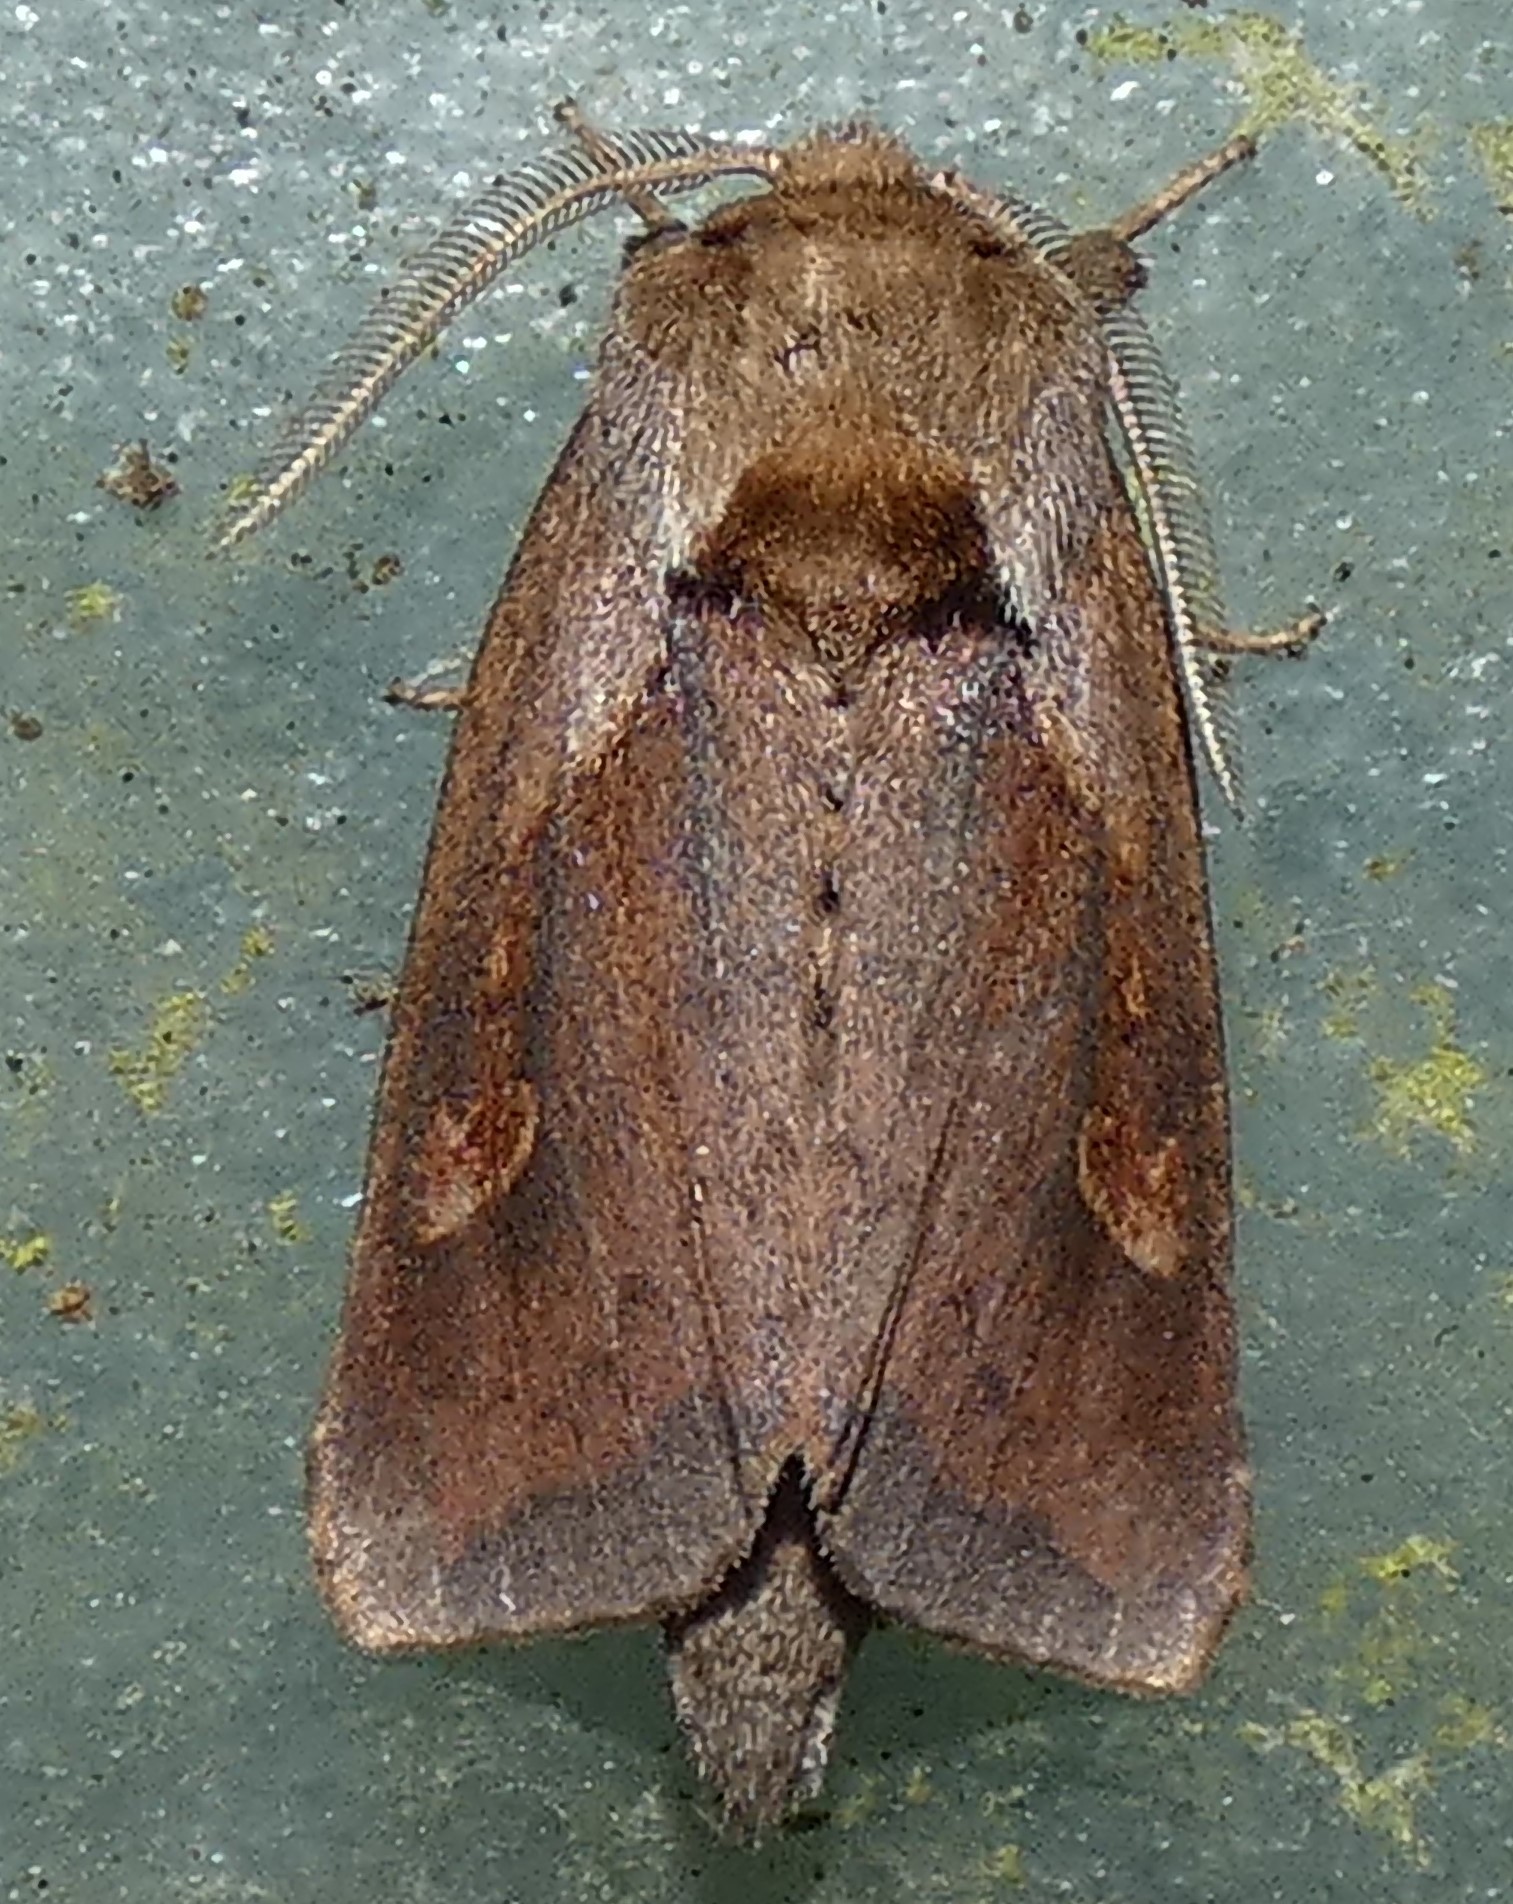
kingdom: Animalia
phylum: Arthropoda
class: Insecta
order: Lepidoptera
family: Noctuidae
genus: Bellura
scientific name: Bellura obliqua
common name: Cattail borer moth
